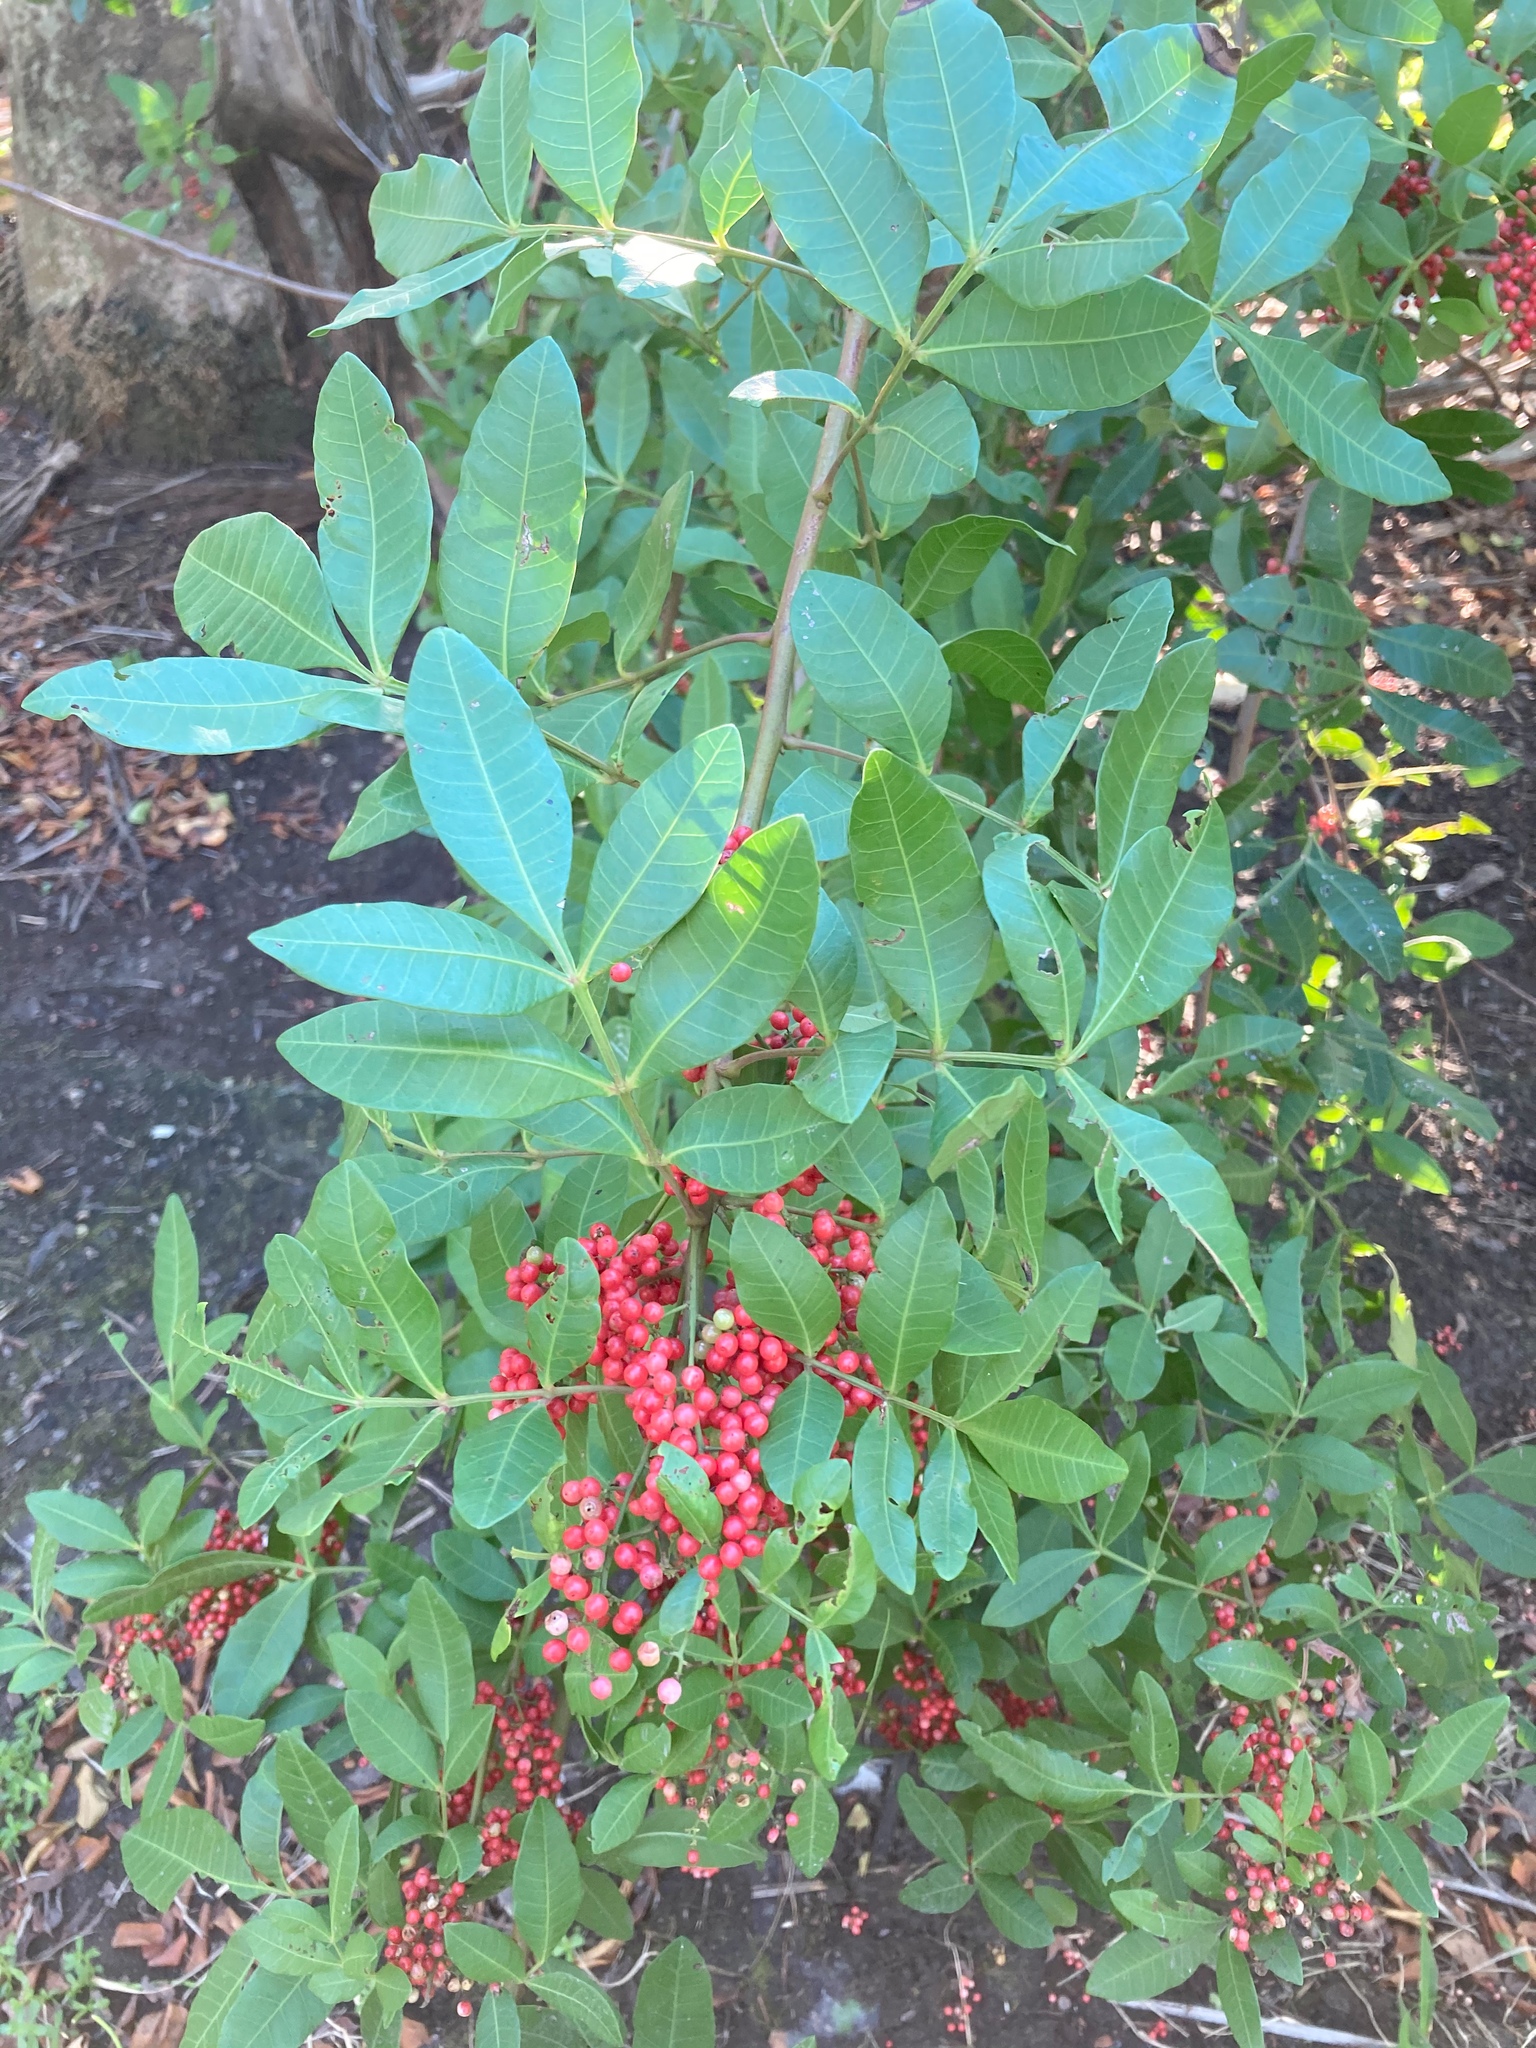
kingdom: Plantae
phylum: Tracheophyta
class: Magnoliopsida
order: Sapindales
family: Anacardiaceae
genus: Schinus
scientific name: Schinus terebinthifolia
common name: Brazilian peppertree
